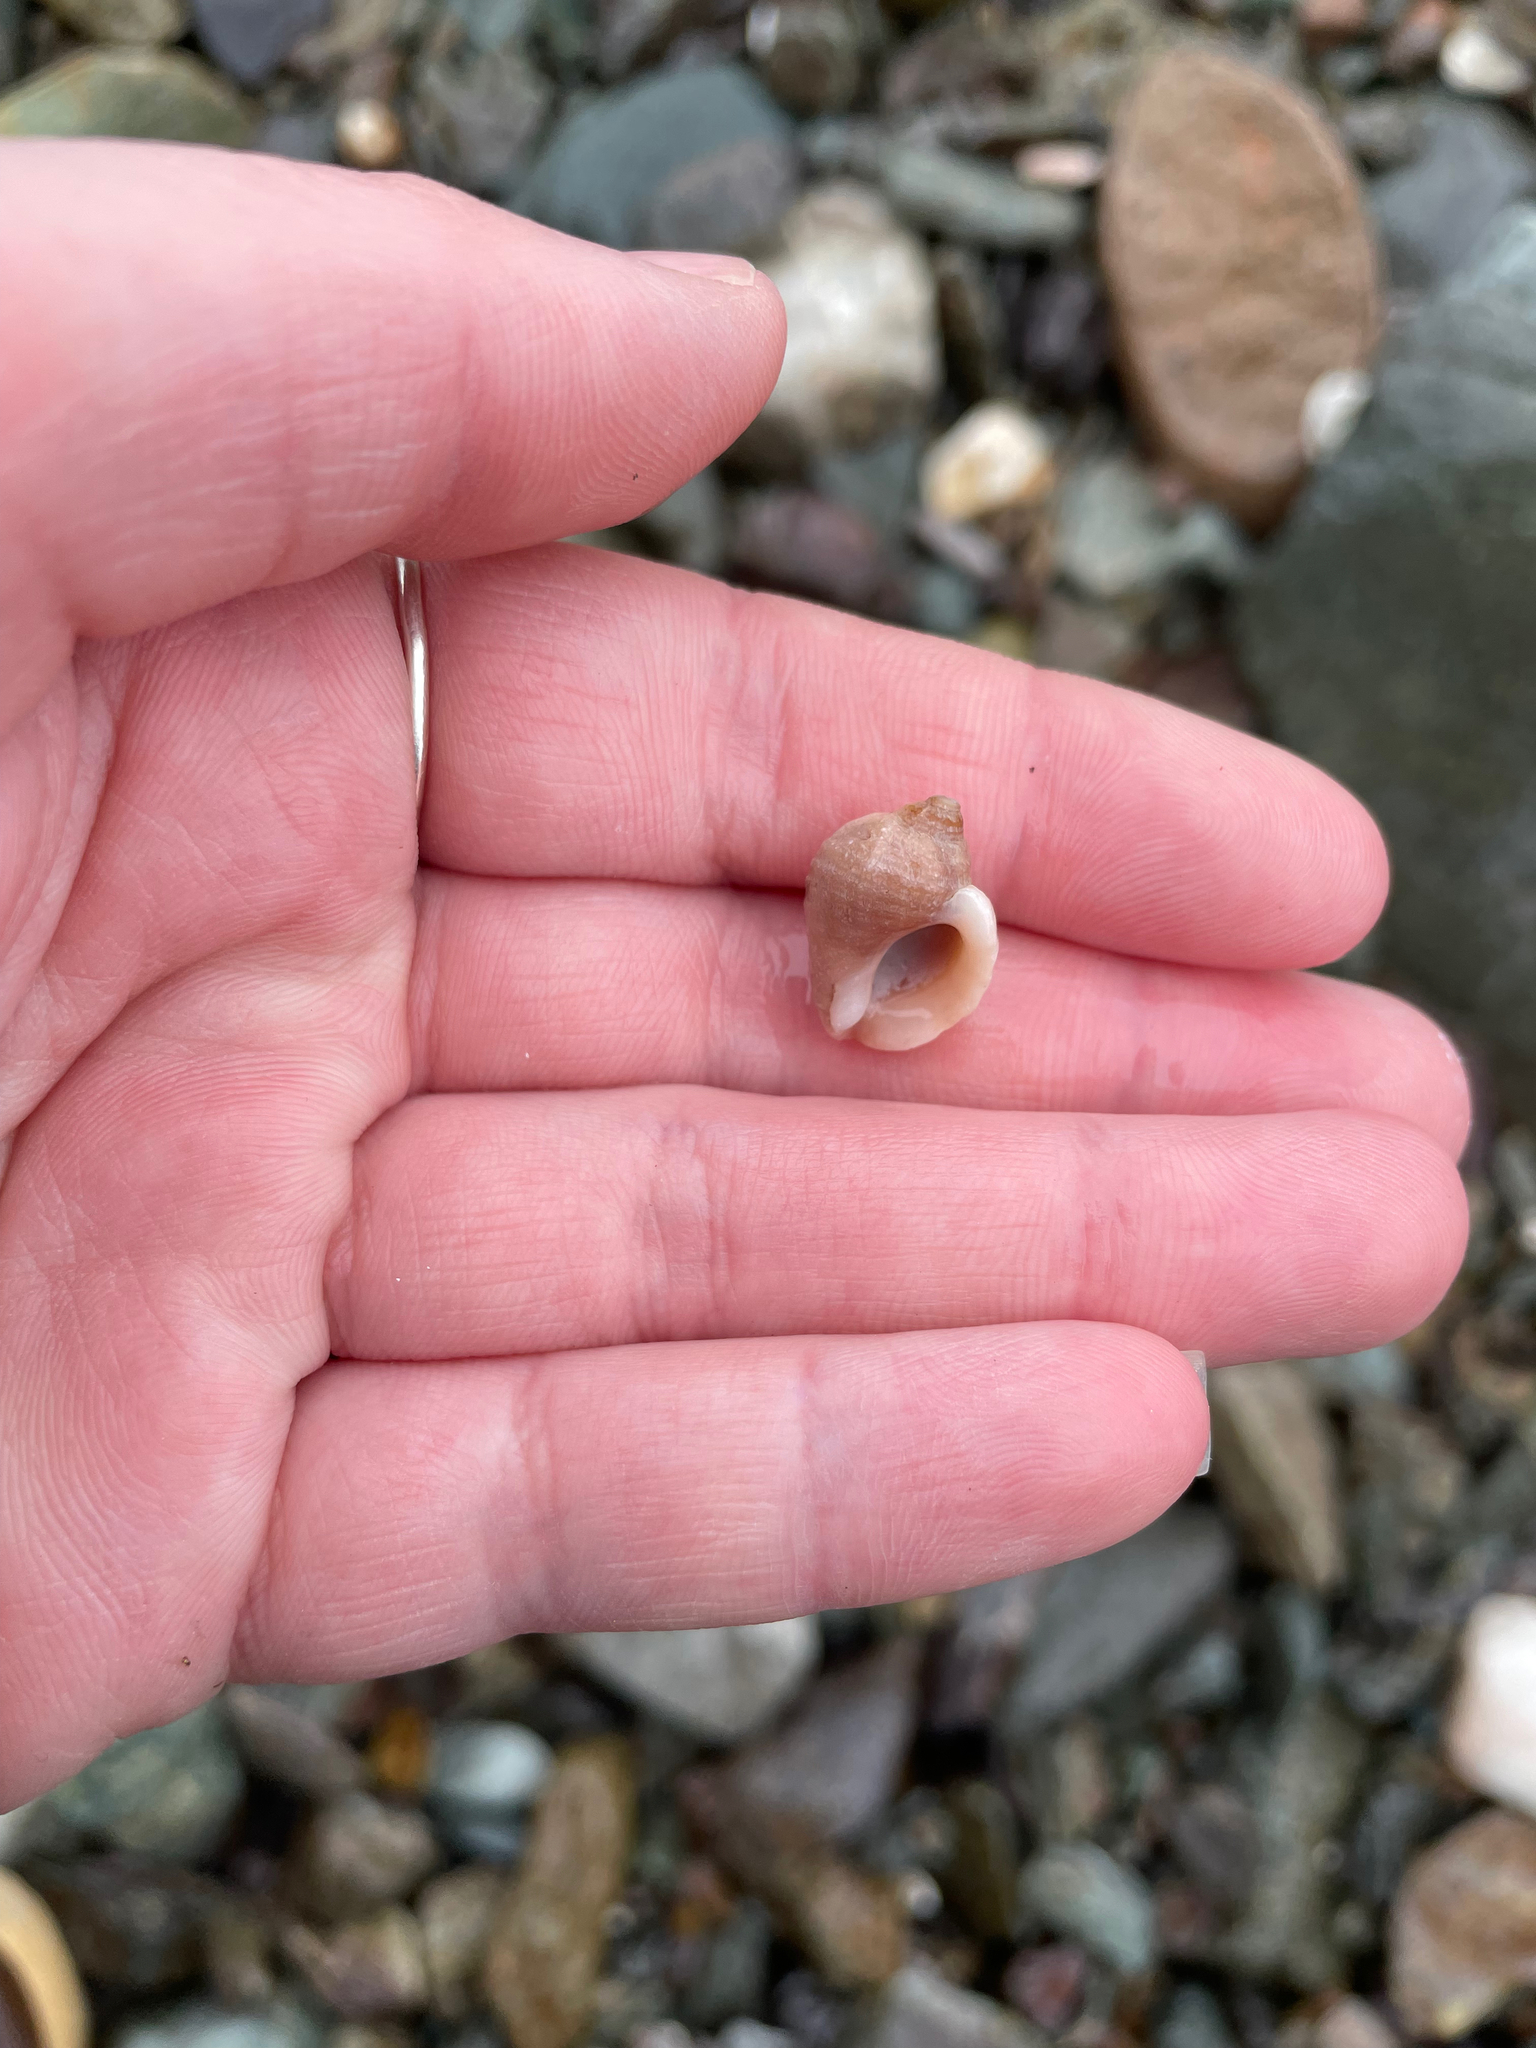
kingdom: Animalia
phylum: Mollusca
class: Gastropoda
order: Neogastropoda
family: Muricidae
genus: Nucella
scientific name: Nucella lapillus
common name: Dog whelk
